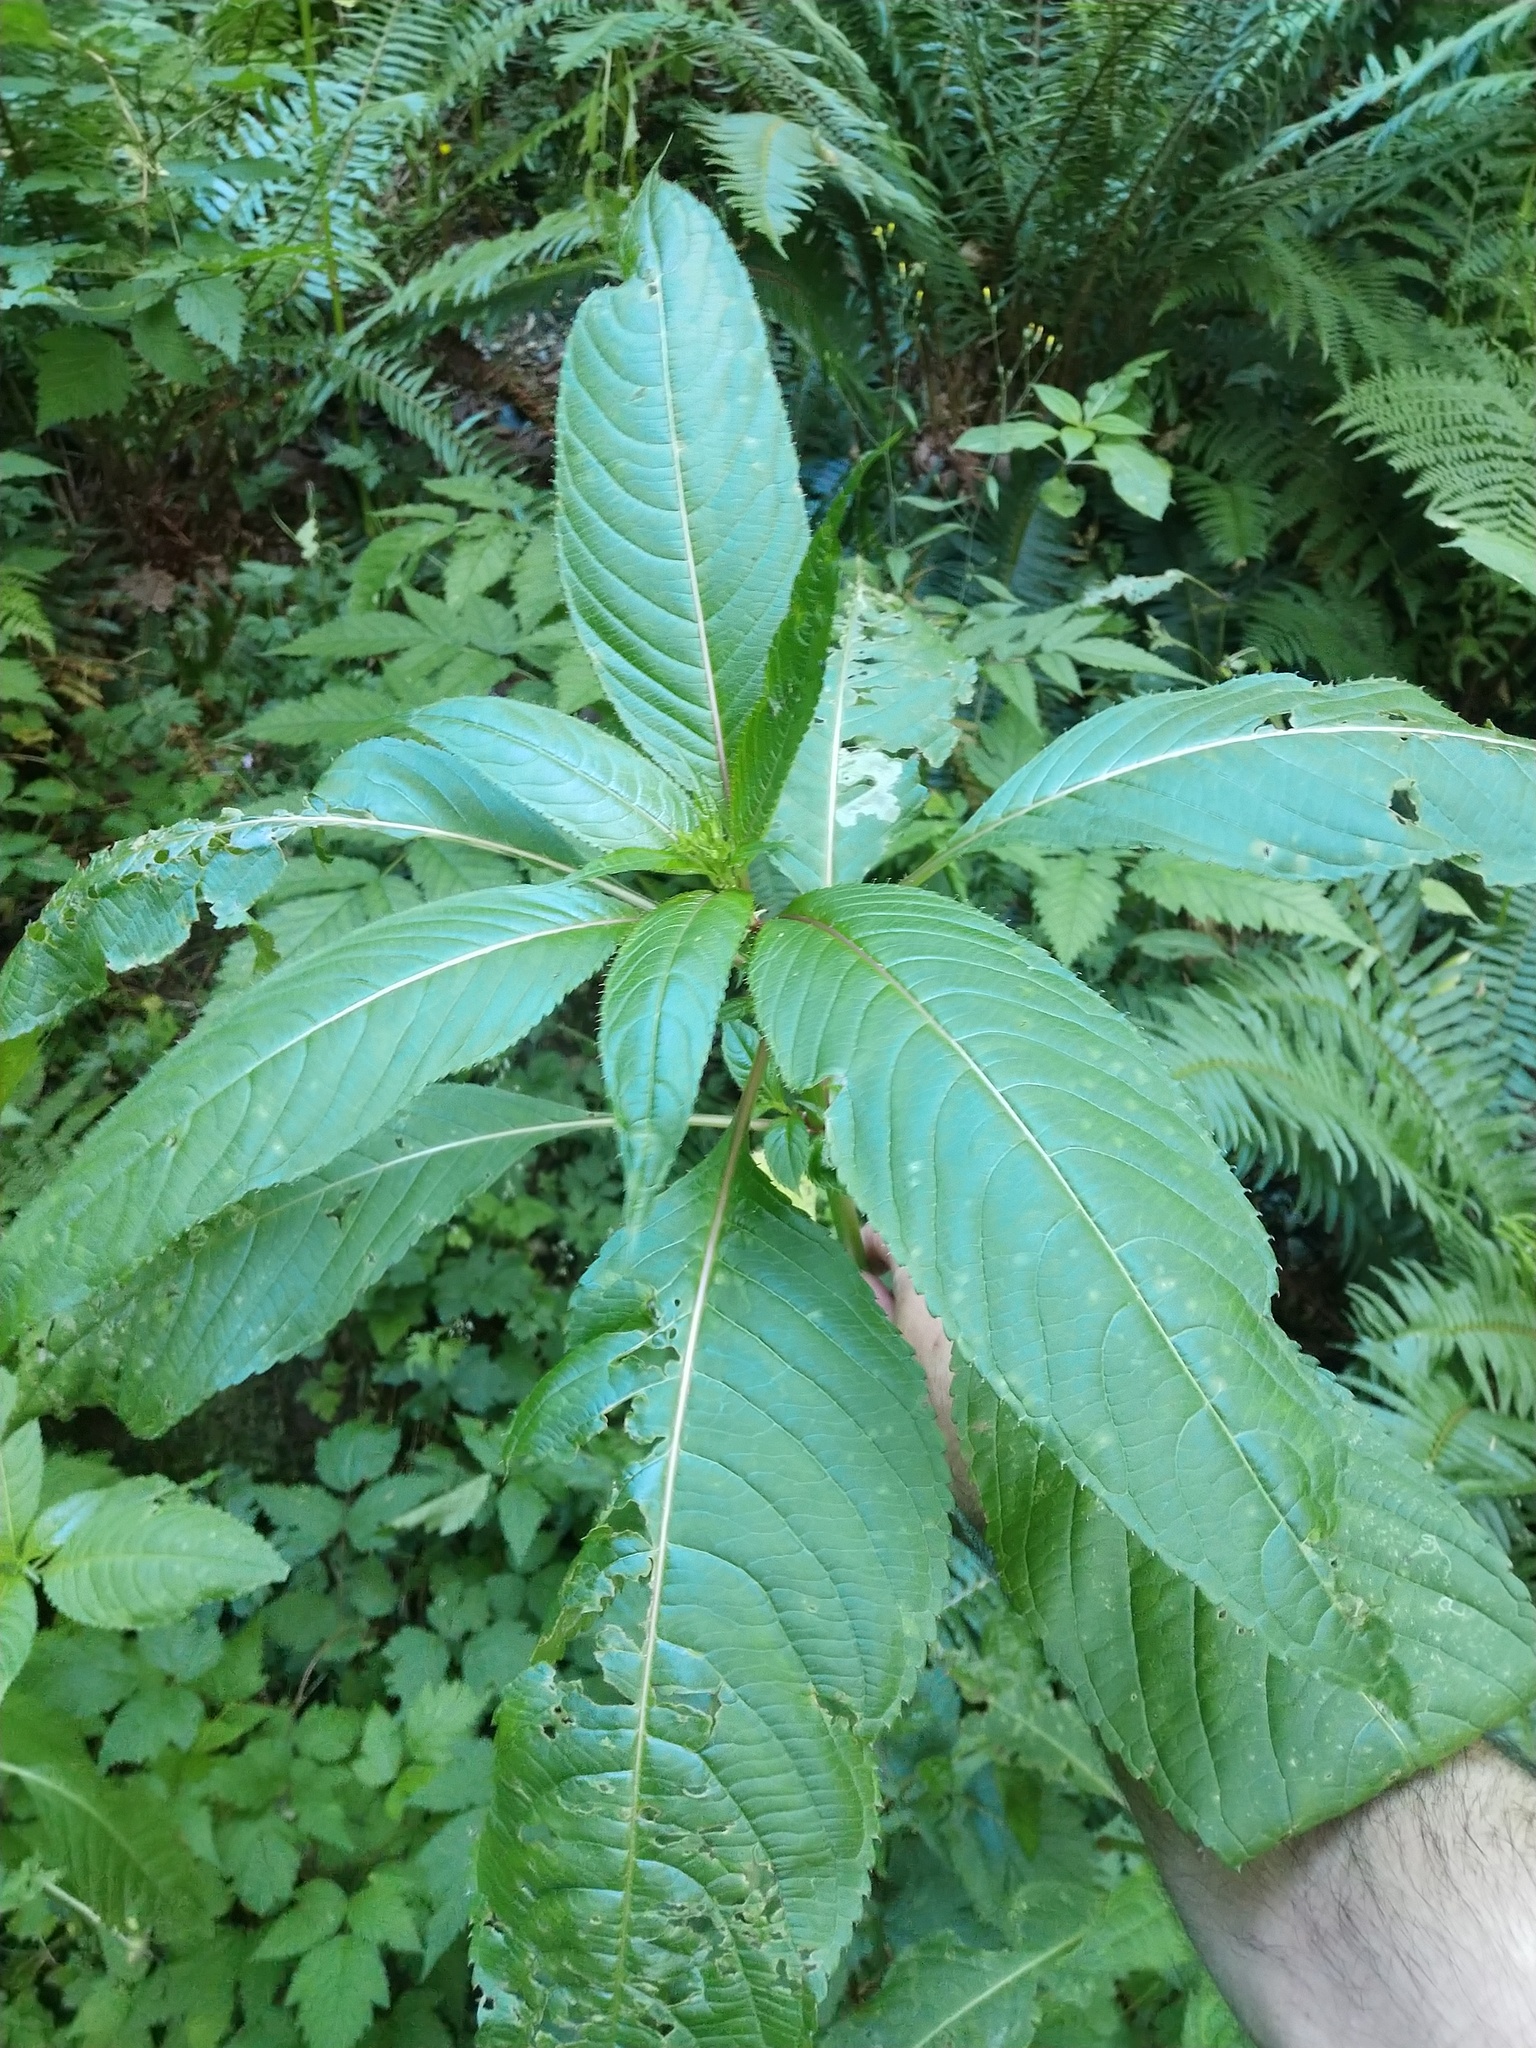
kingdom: Plantae
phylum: Tracheophyta
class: Magnoliopsida
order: Ericales
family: Balsaminaceae
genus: Impatiens
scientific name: Impatiens glandulifera
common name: Himalayan balsam
